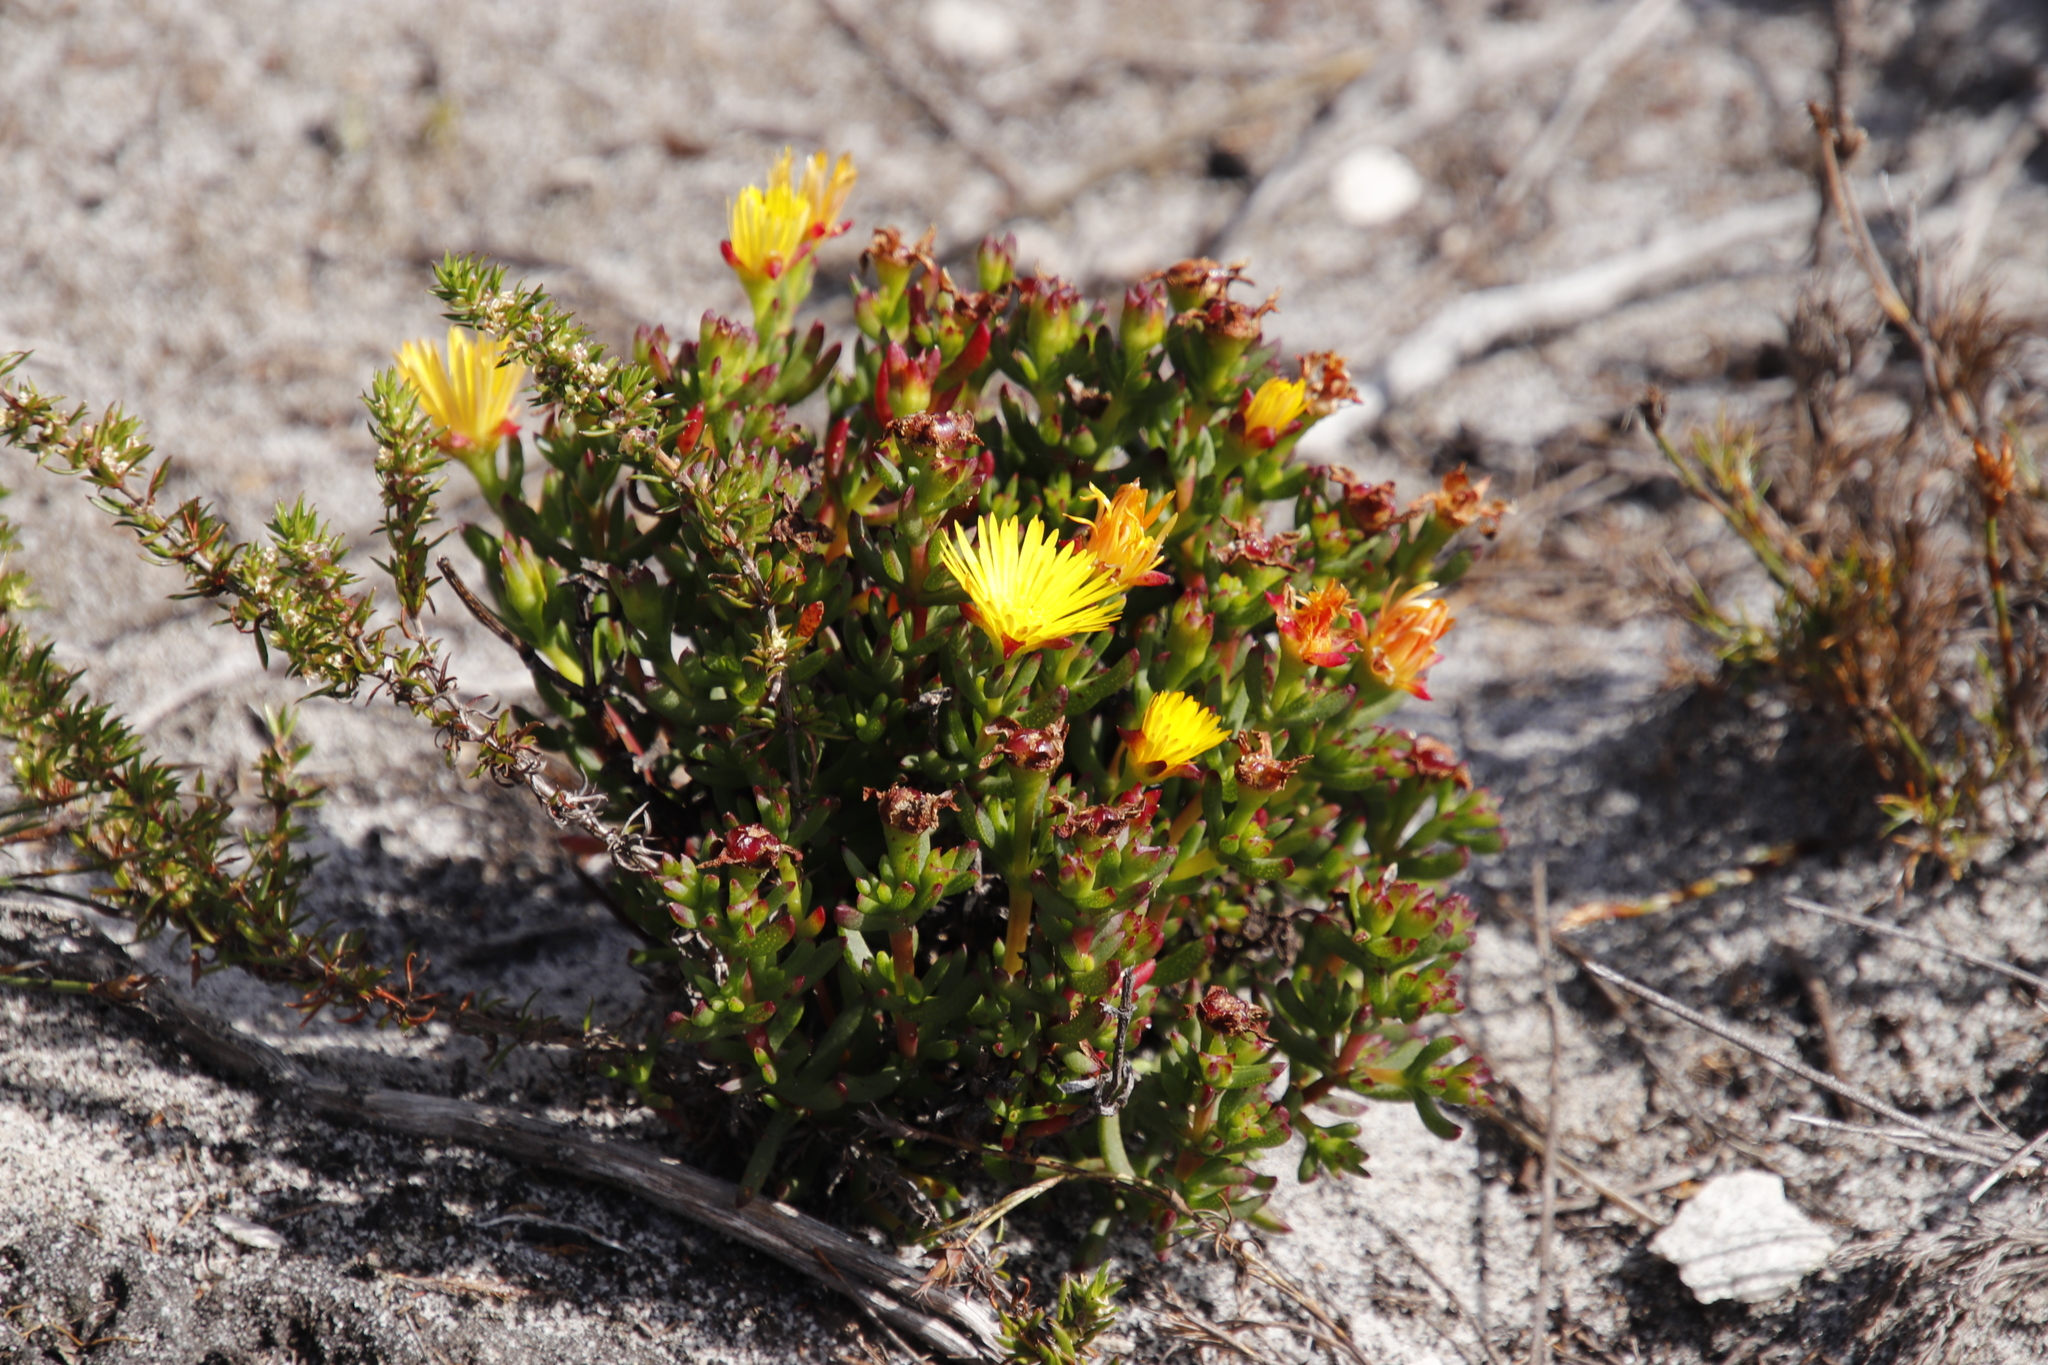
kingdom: Plantae
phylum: Tracheophyta
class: Magnoliopsida
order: Caryophyllales
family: Aizoaceae
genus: Lampranthus
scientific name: Lampranthus promontorii
